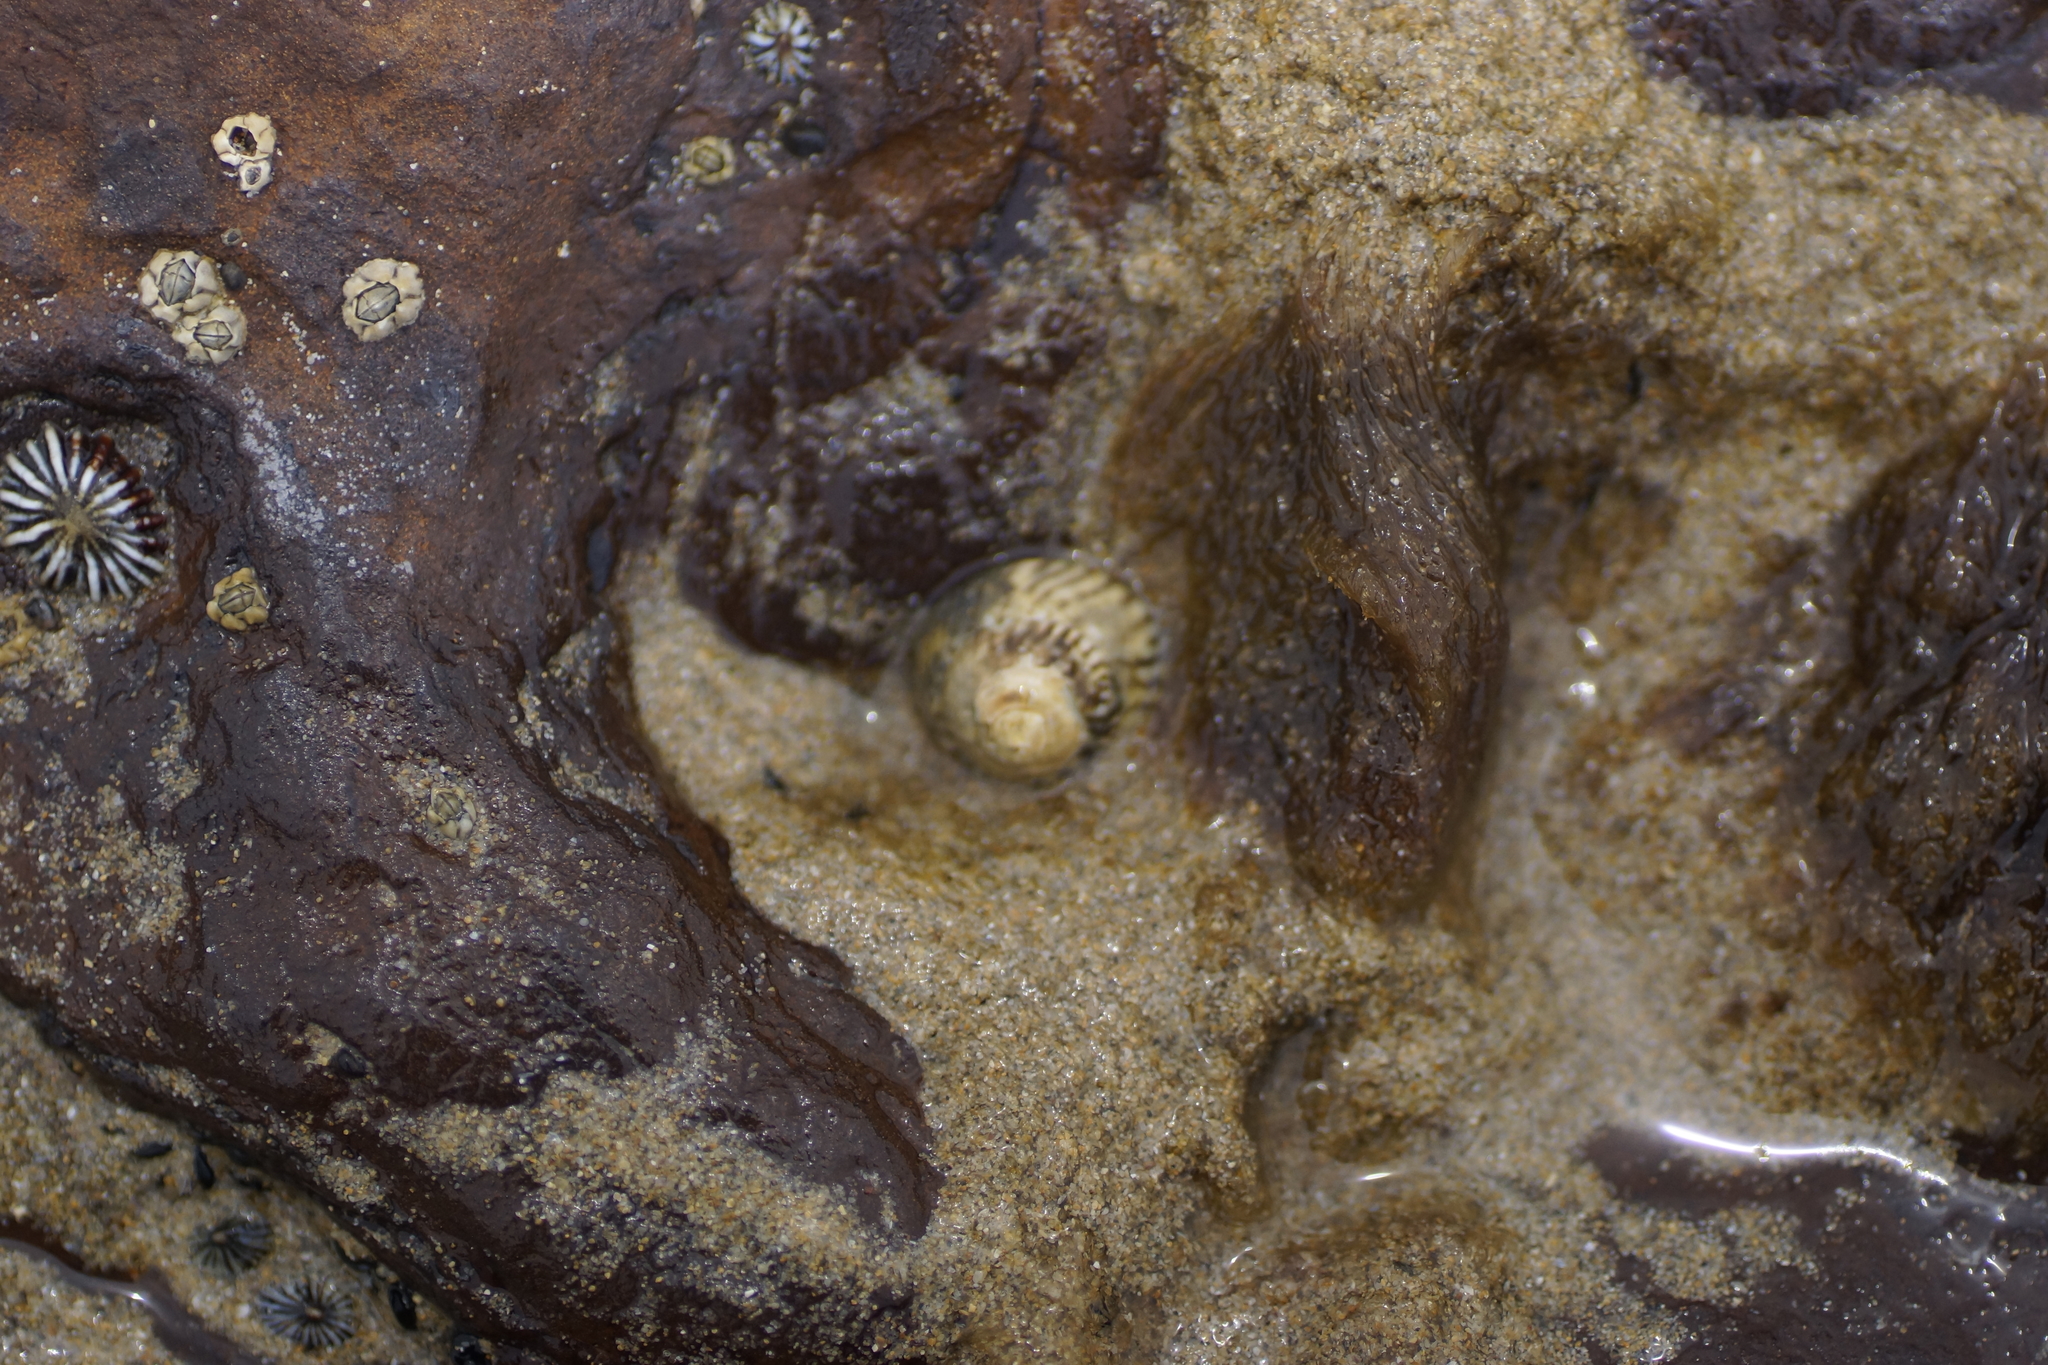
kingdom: Animalia
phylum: Mollusca
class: Gastropoda
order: Littorinimorpha
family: Littorinidae
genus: Bembicium
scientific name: Bembicium nanum
